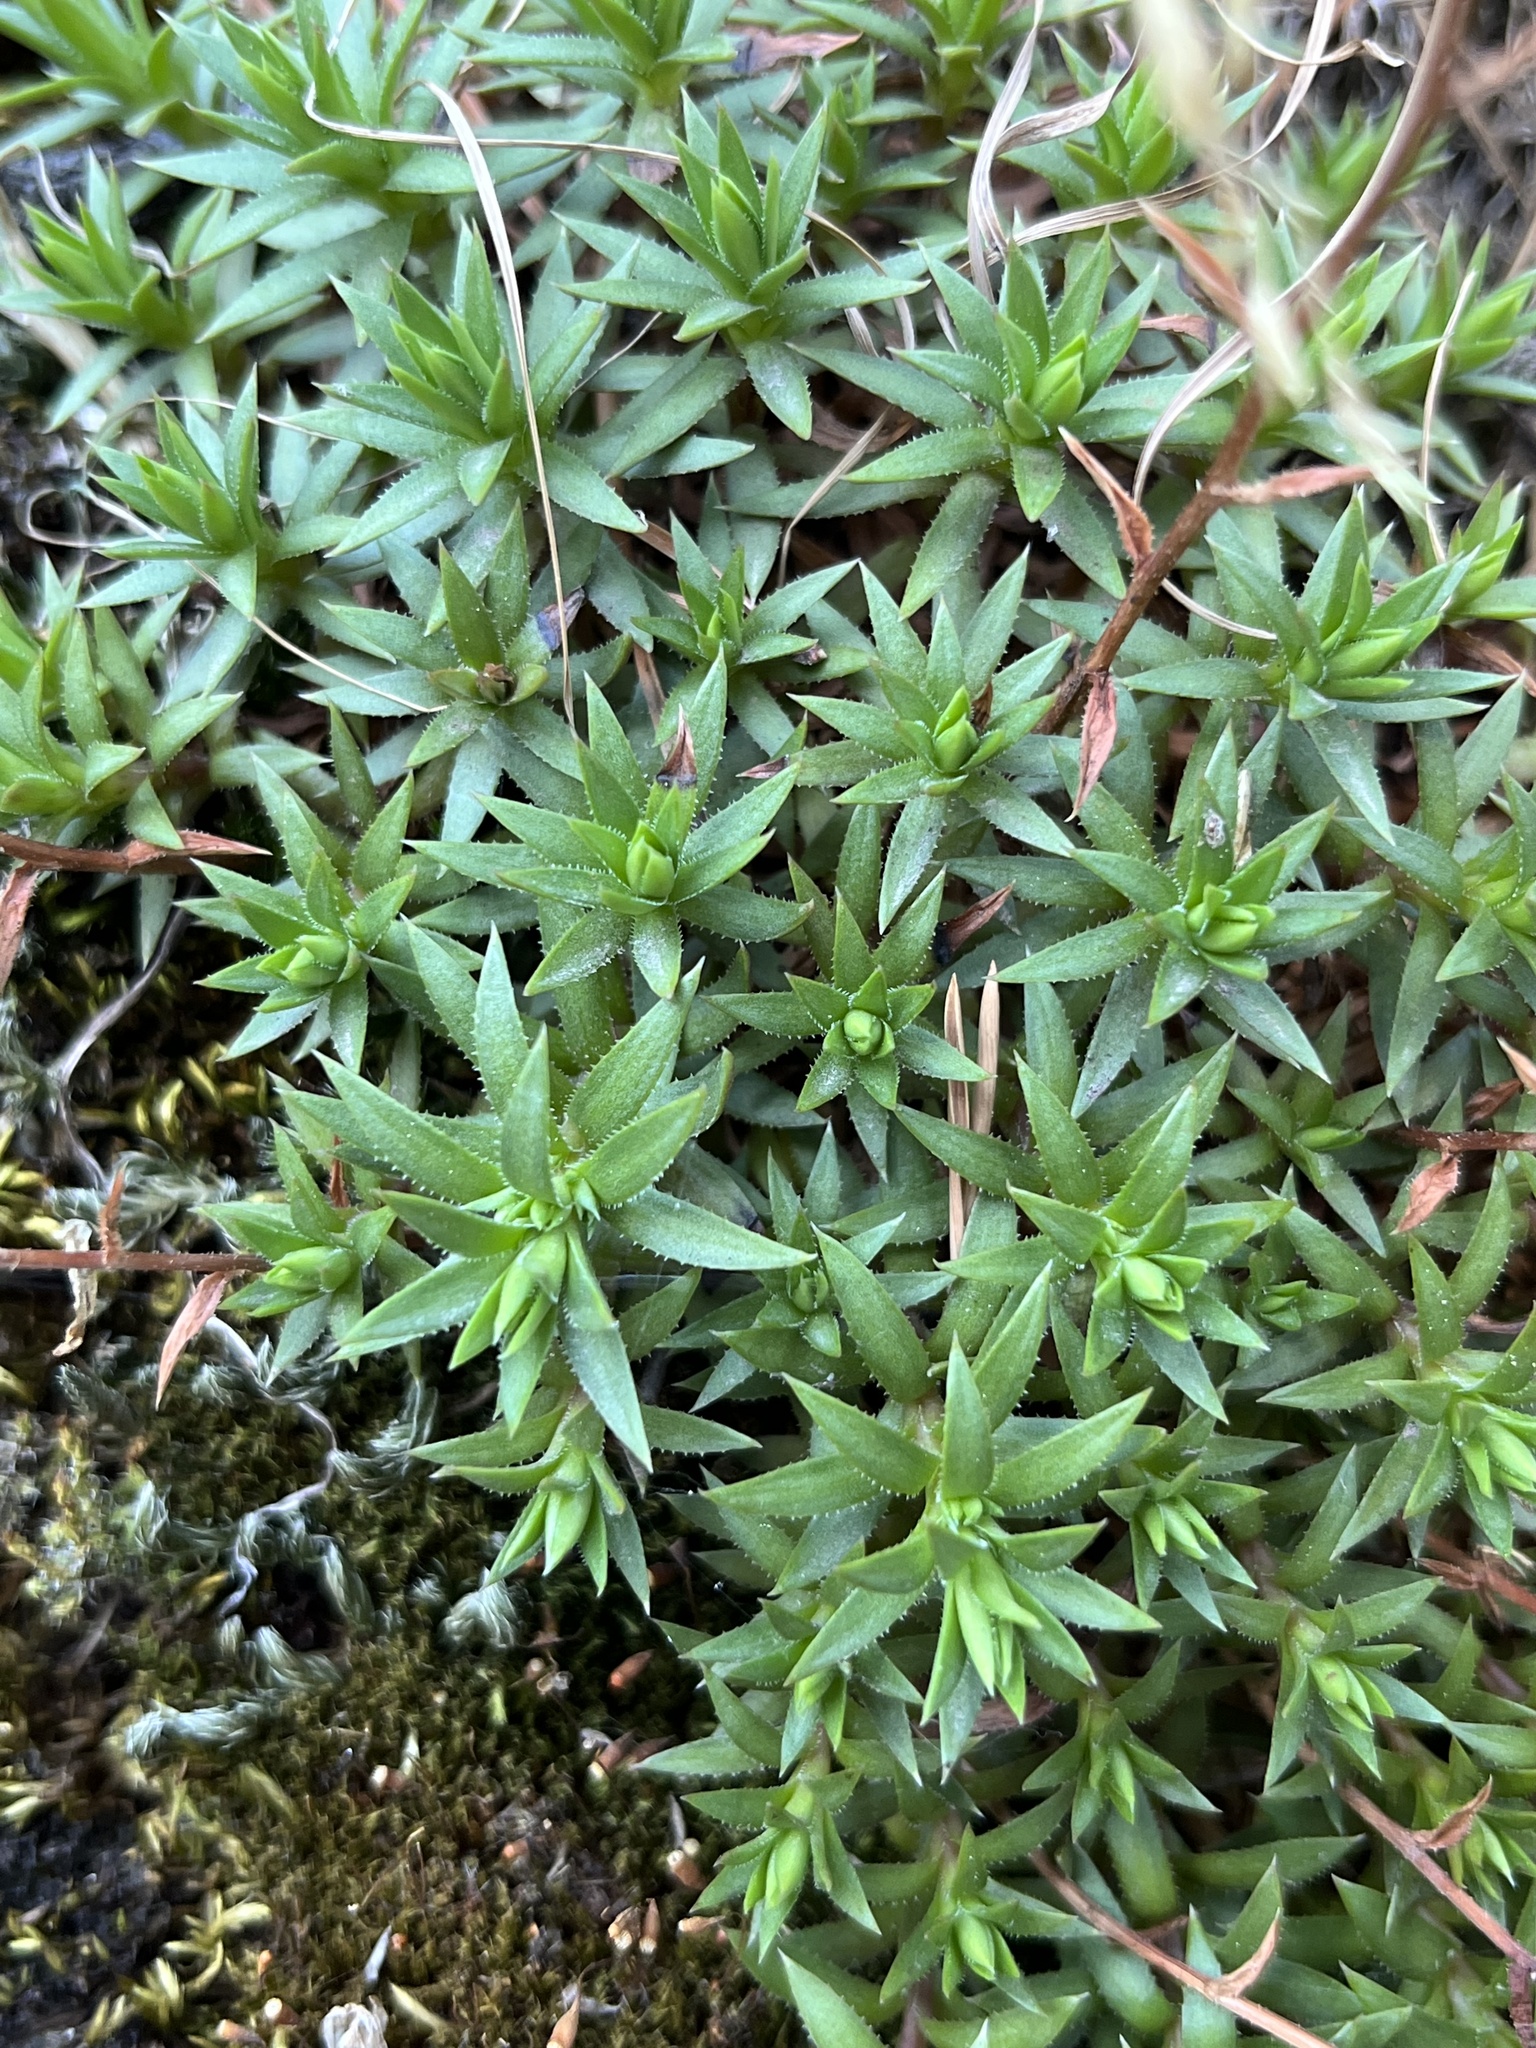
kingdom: Plantae
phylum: Tracheophyta
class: Magnoliopsida
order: Saxifragales
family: Saxifragaceae
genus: Saxifraga
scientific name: Saxifraga bronchialis
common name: Matted saxifrage
